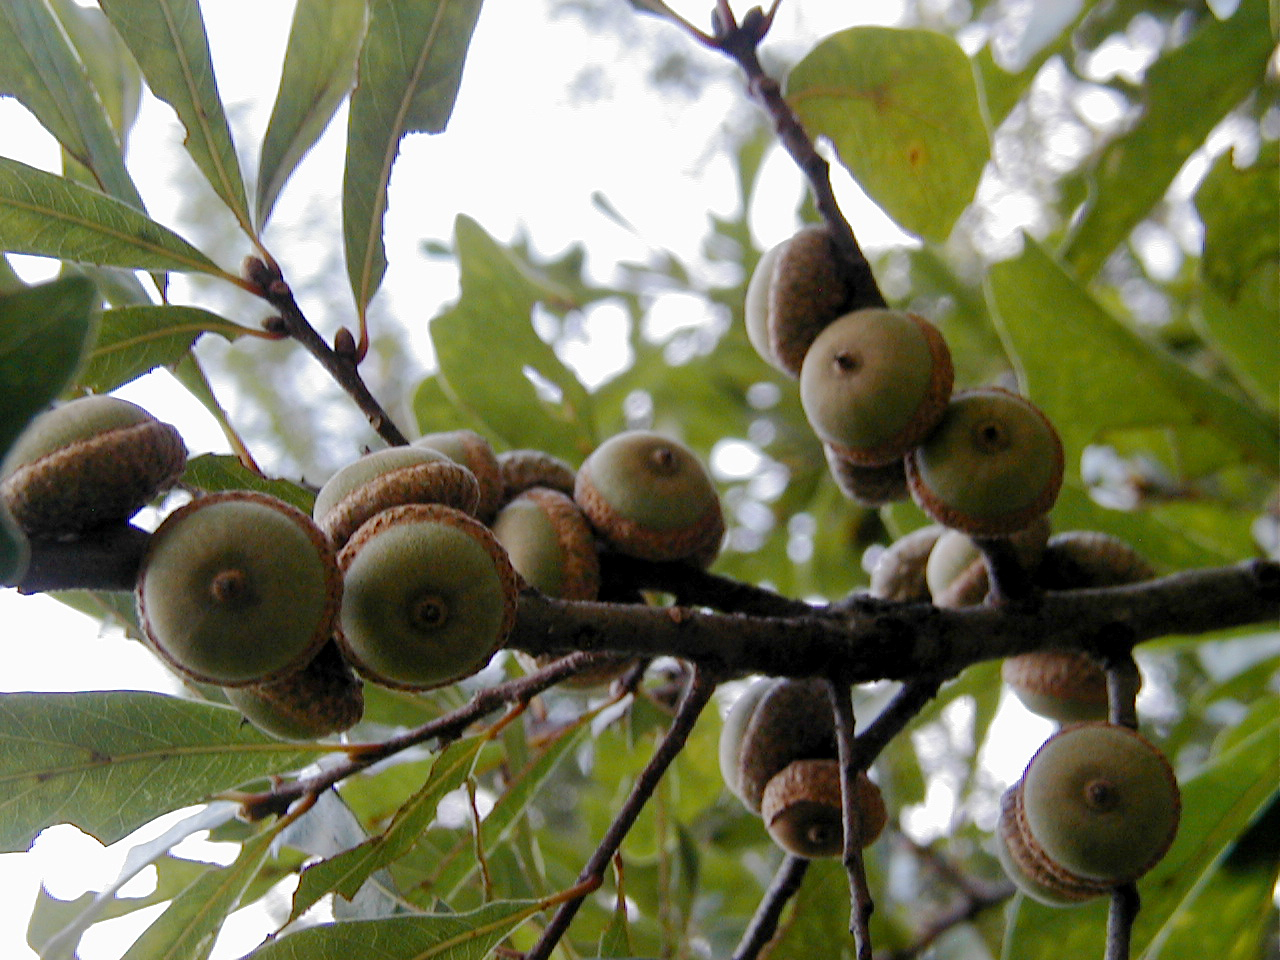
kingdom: Plantae
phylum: Tracheophyta
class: Magnoliopsida
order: Fagales
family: Fagaceae
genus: Quercus
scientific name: Quercus nigra
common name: Water oak
